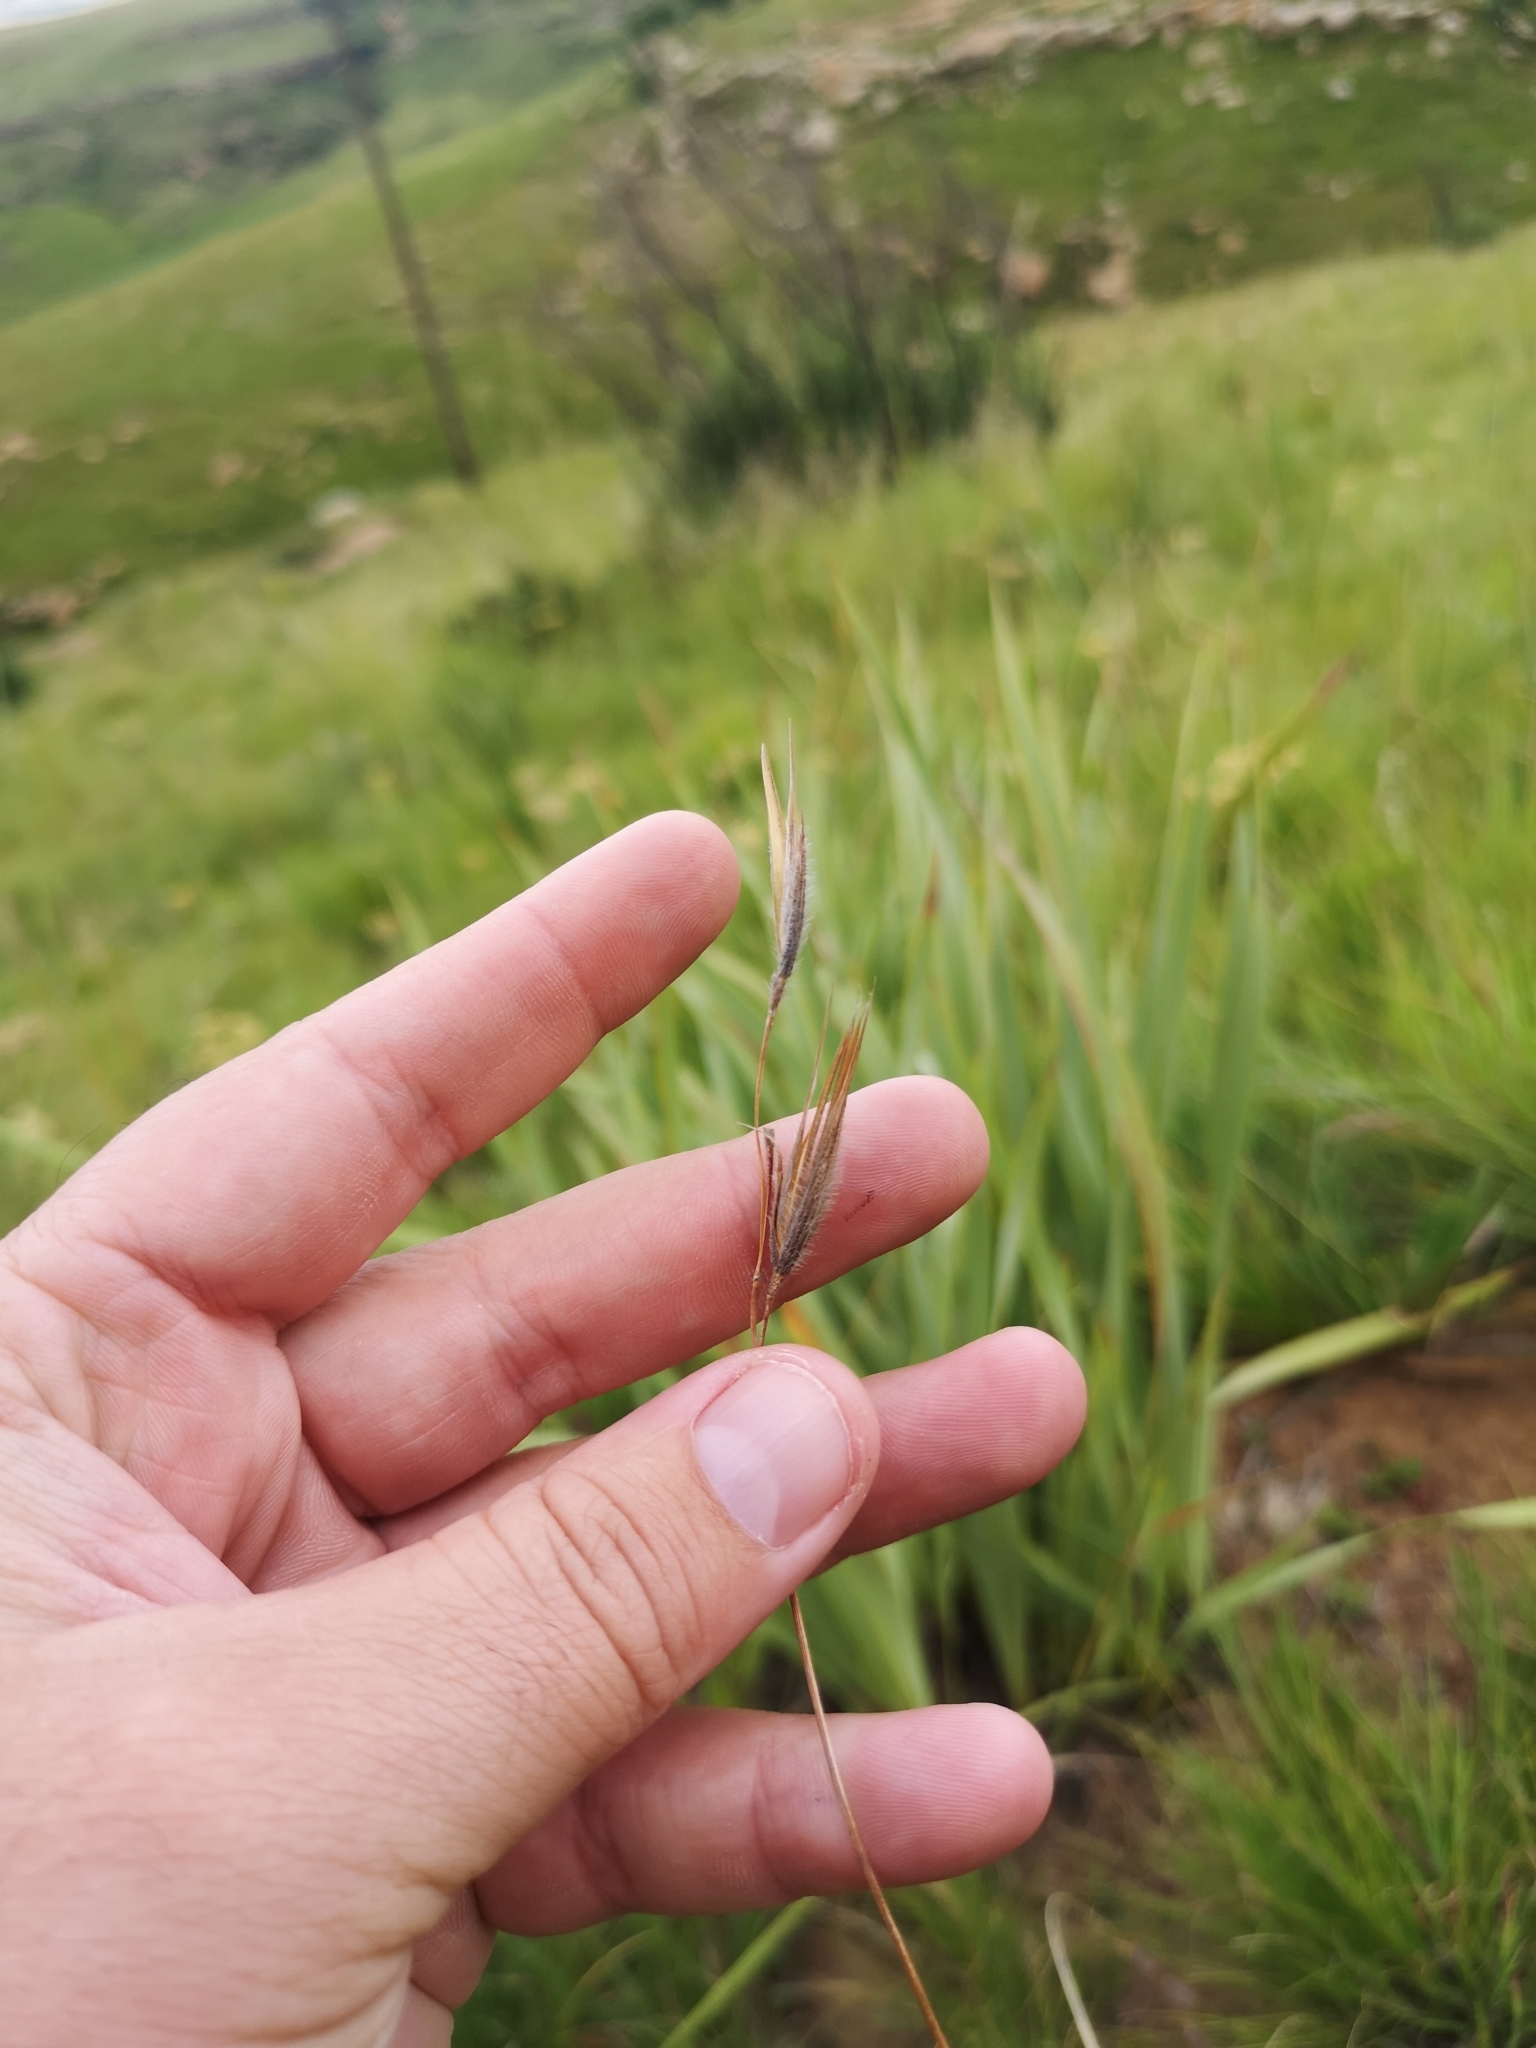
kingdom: Plantae
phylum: Tracheophyta
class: Liliopsida
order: Poales
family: Poaceae
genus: Tristachya
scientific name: Tristachya leucothrix
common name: Trident grass
